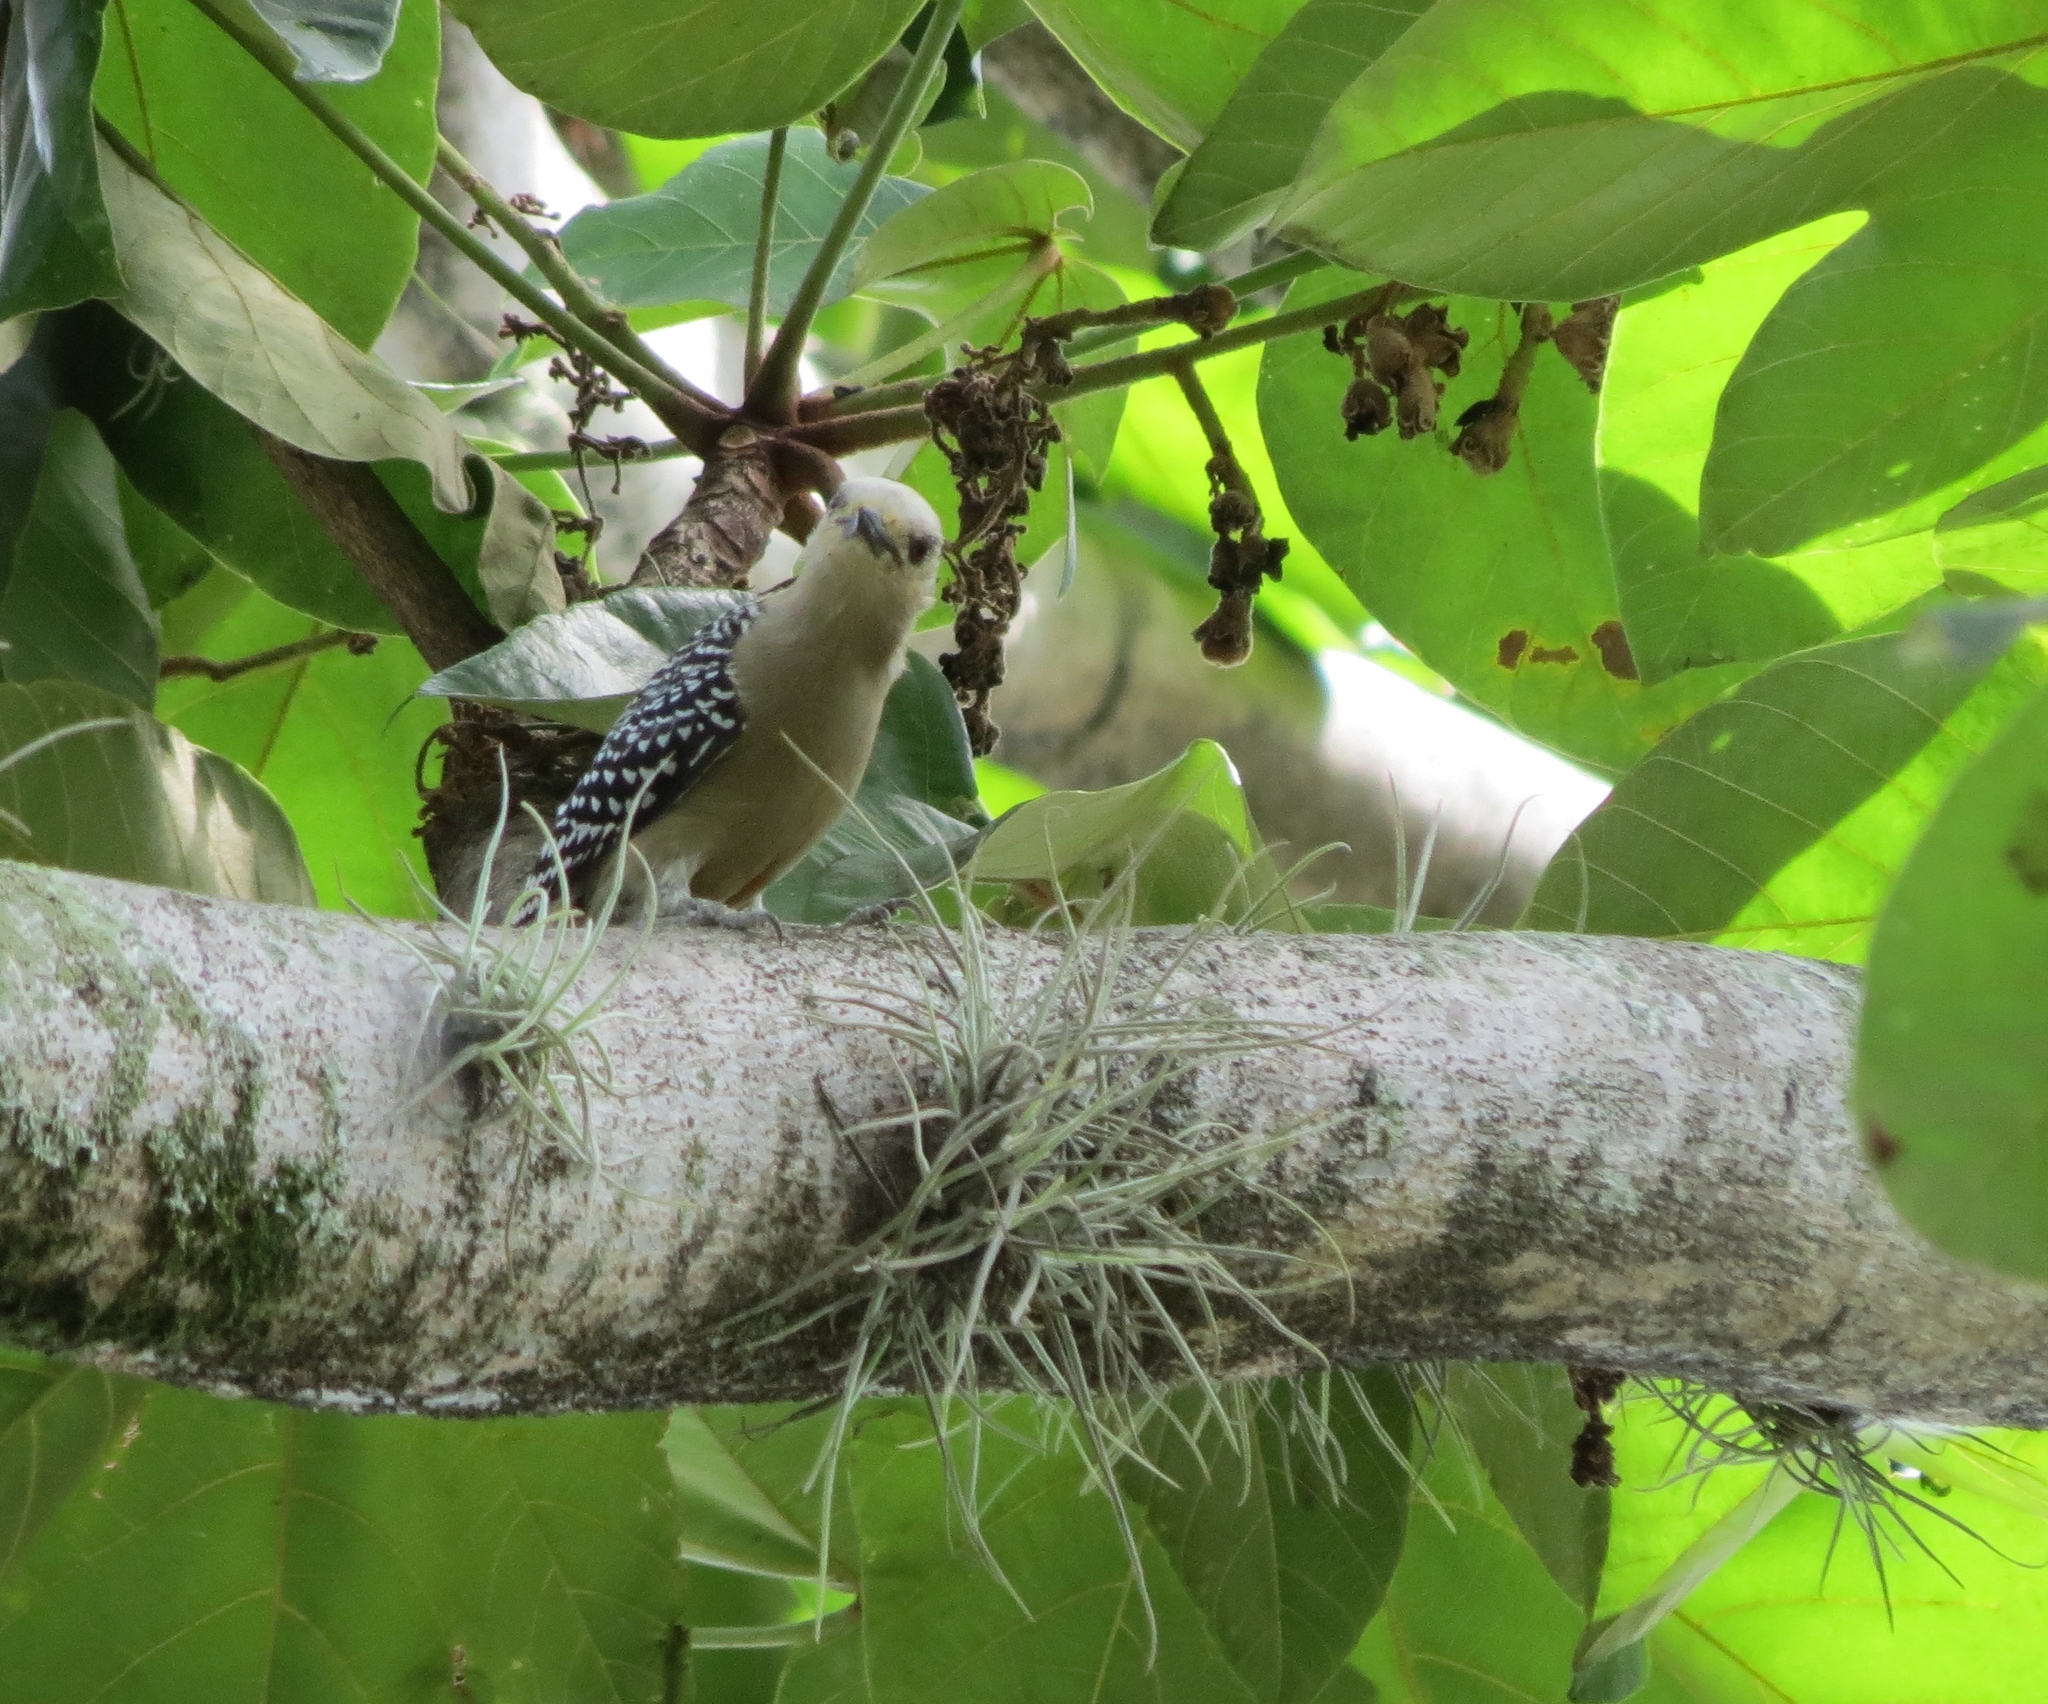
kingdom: Animalia
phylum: Chordata
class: Aves
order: Piciformes
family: Picidae
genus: Melanerpes
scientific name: Melanerpes rubricapillus
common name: Red-crowned woodpecker
